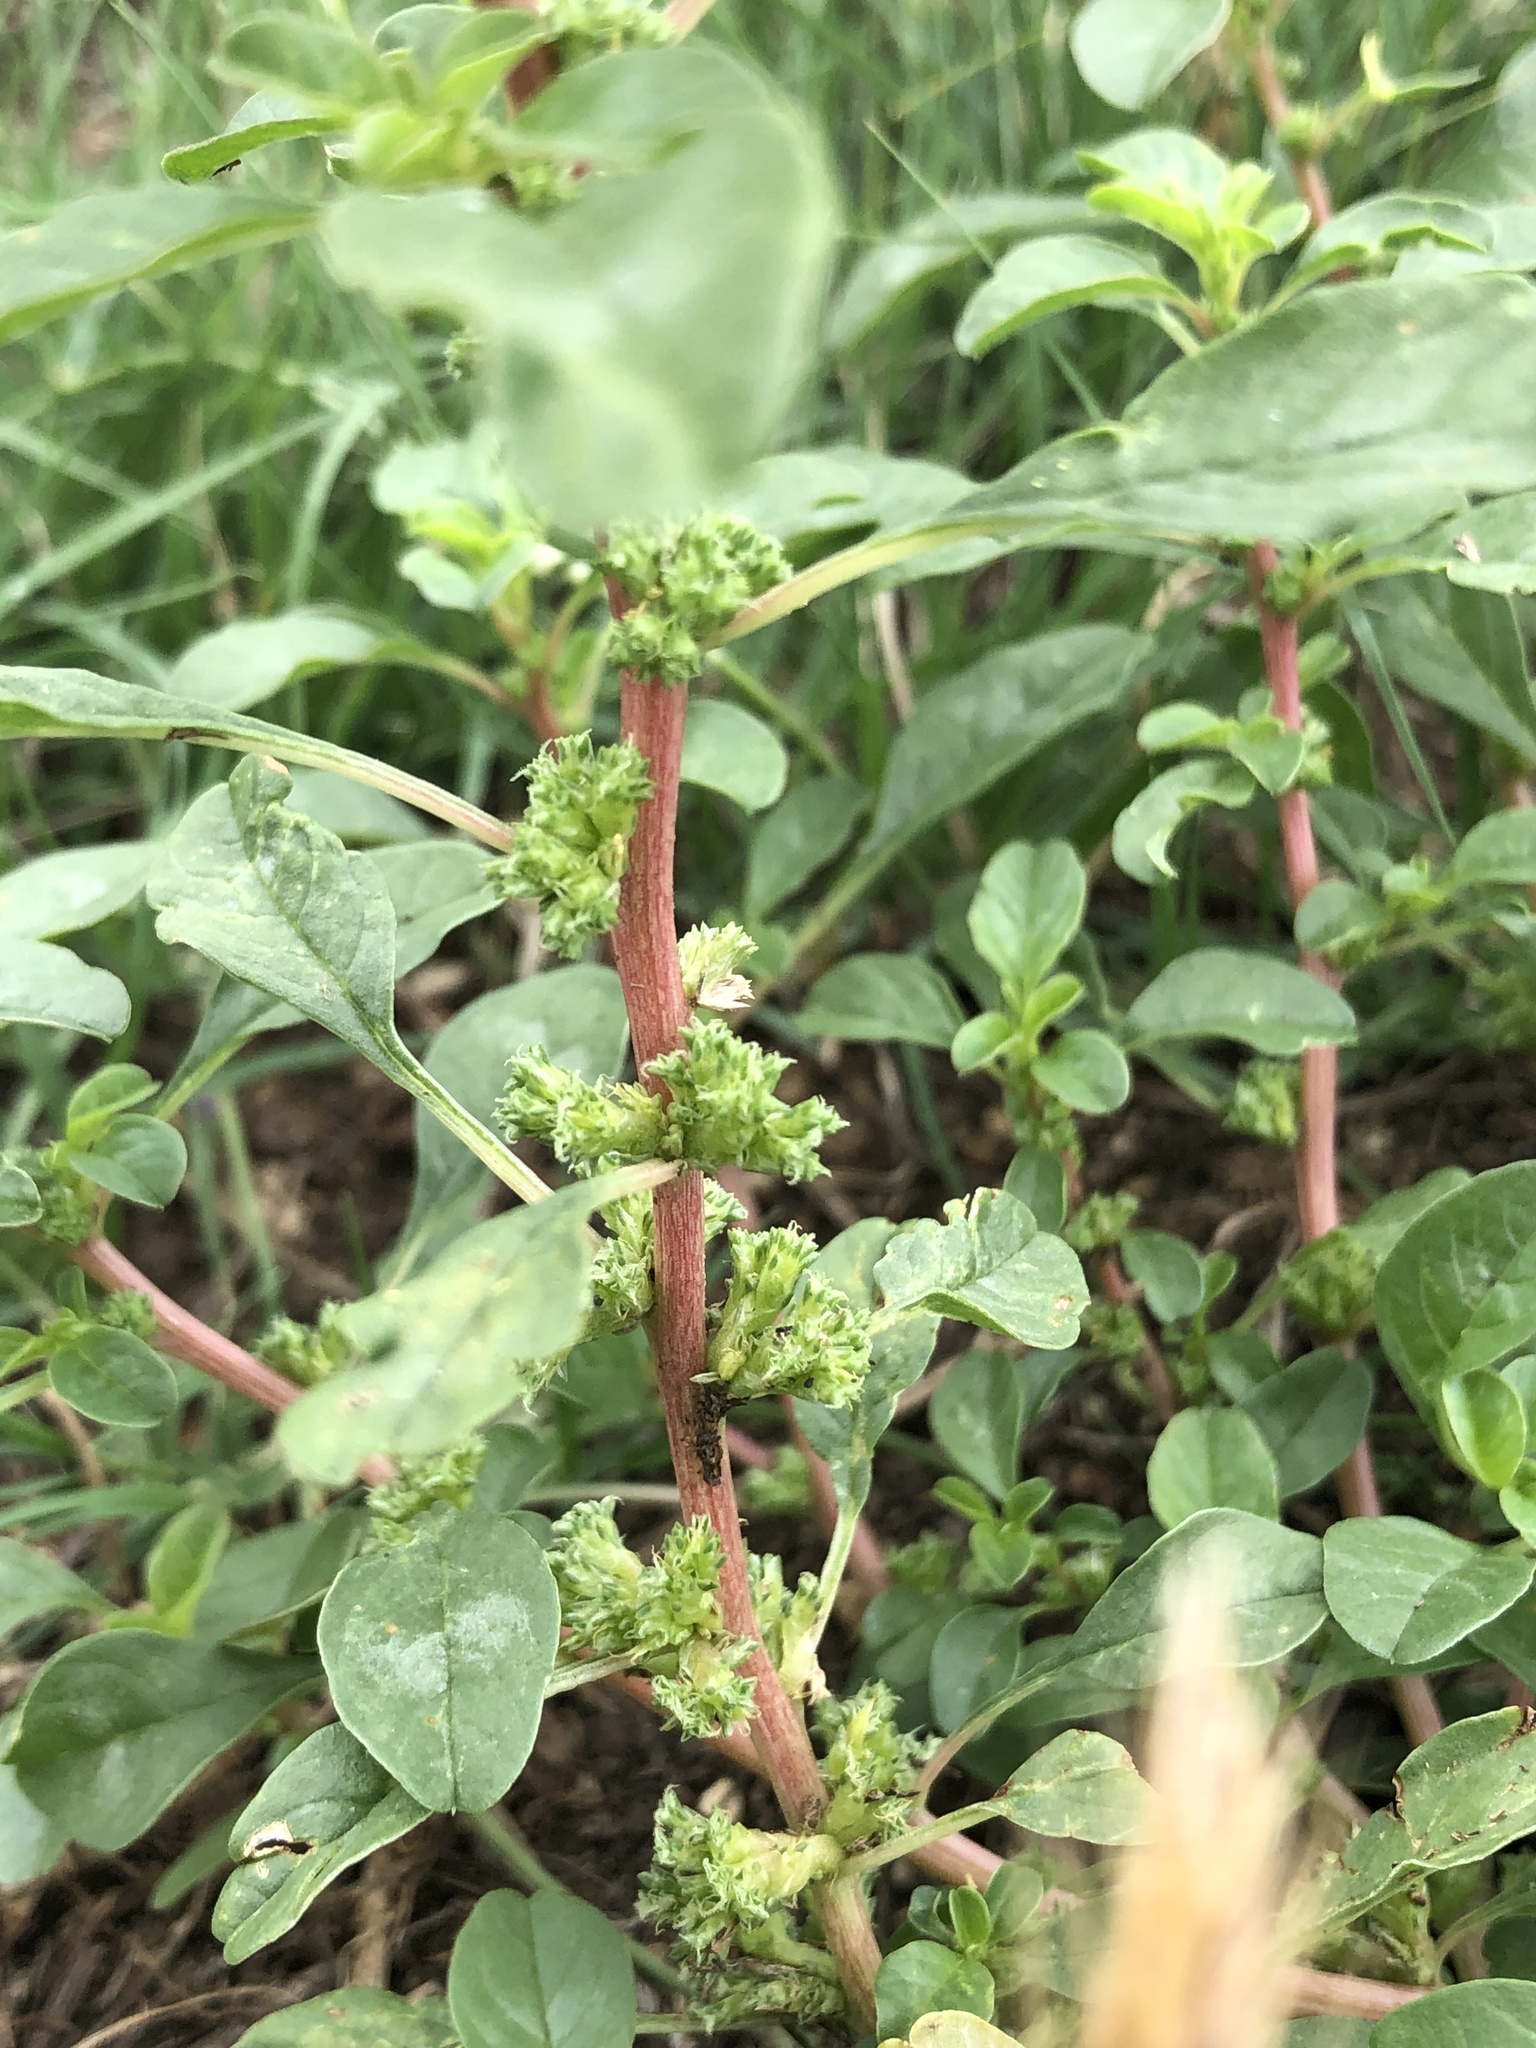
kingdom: Plantae
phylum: Tracheophyta
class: Magnoliopsida
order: Caryophyllales
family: Amaranthaceae
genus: Amaranthus
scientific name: Amaranthus blitoides
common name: Prostrate pigweed
